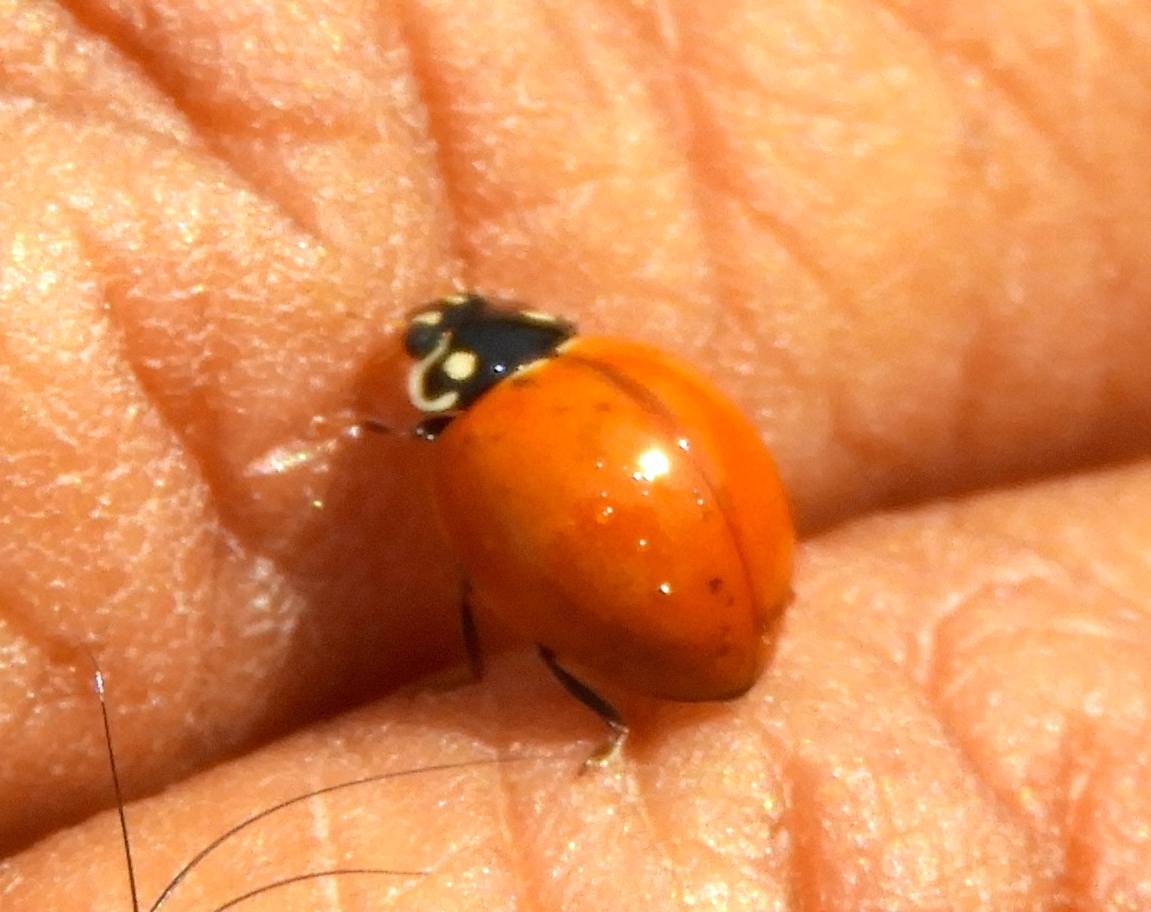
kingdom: Animalia
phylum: Arthropoda
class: Insecta
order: Coleoptera
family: Coccinellidae
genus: Cycloneda
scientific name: Cycloneda sanguinea
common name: Ladybird beetle
